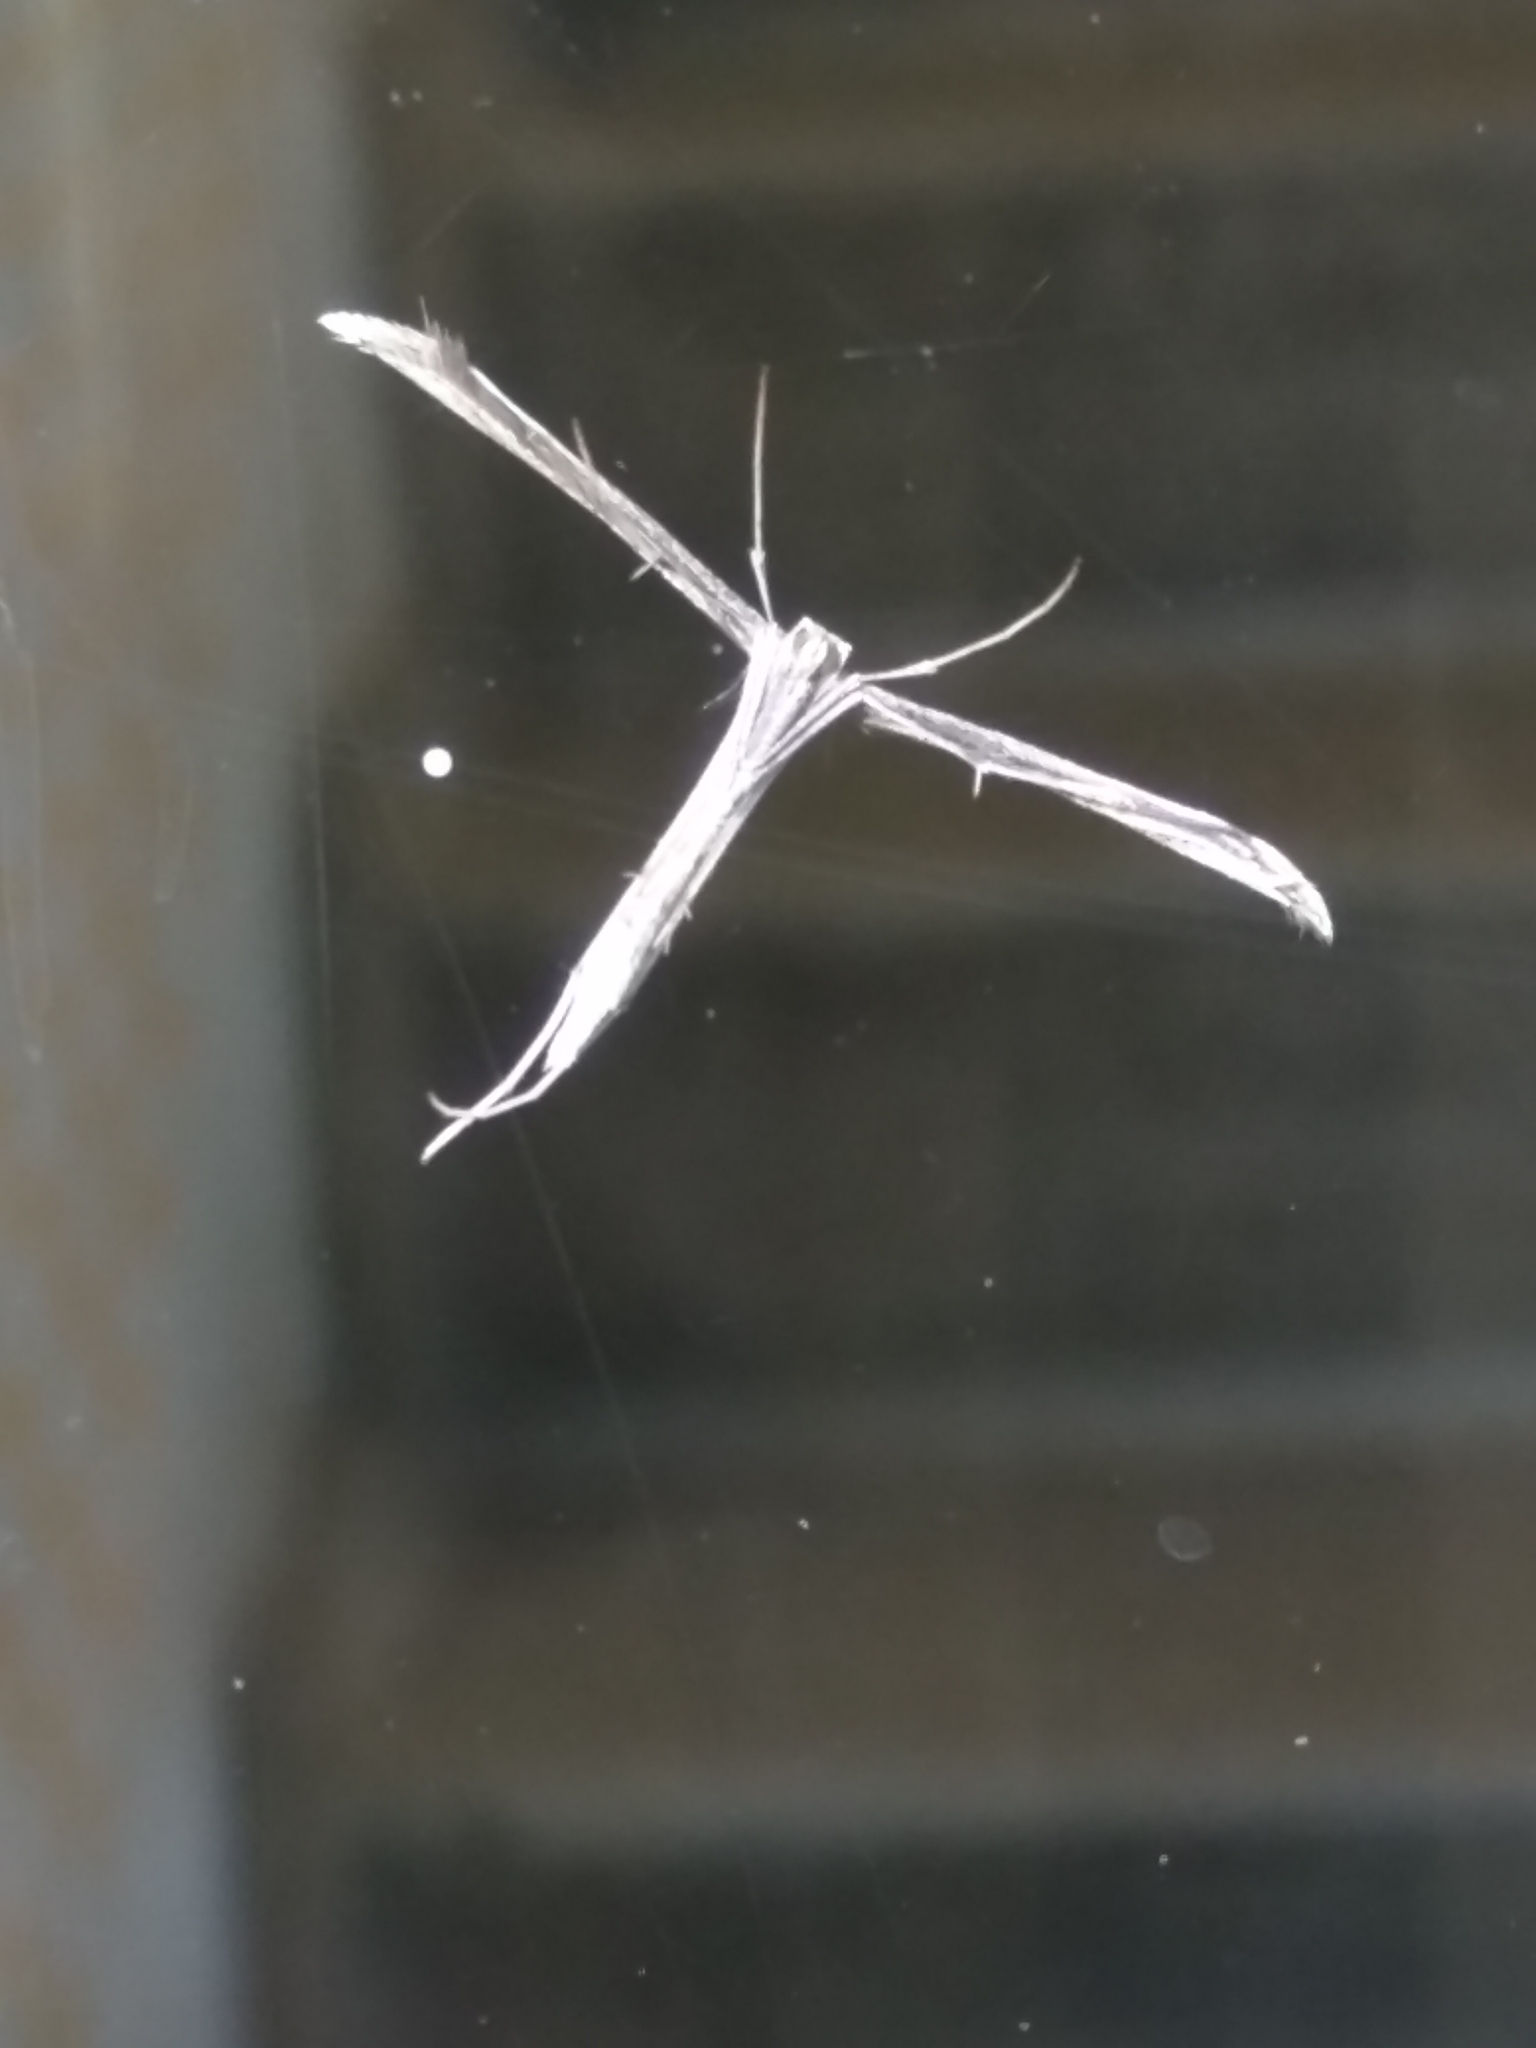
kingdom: Animalia
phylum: Arthropoda
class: Insecta
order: Lepidoptera
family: Pterophoridae
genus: Emmelina
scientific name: Emmelina monodactyla
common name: Common plume
